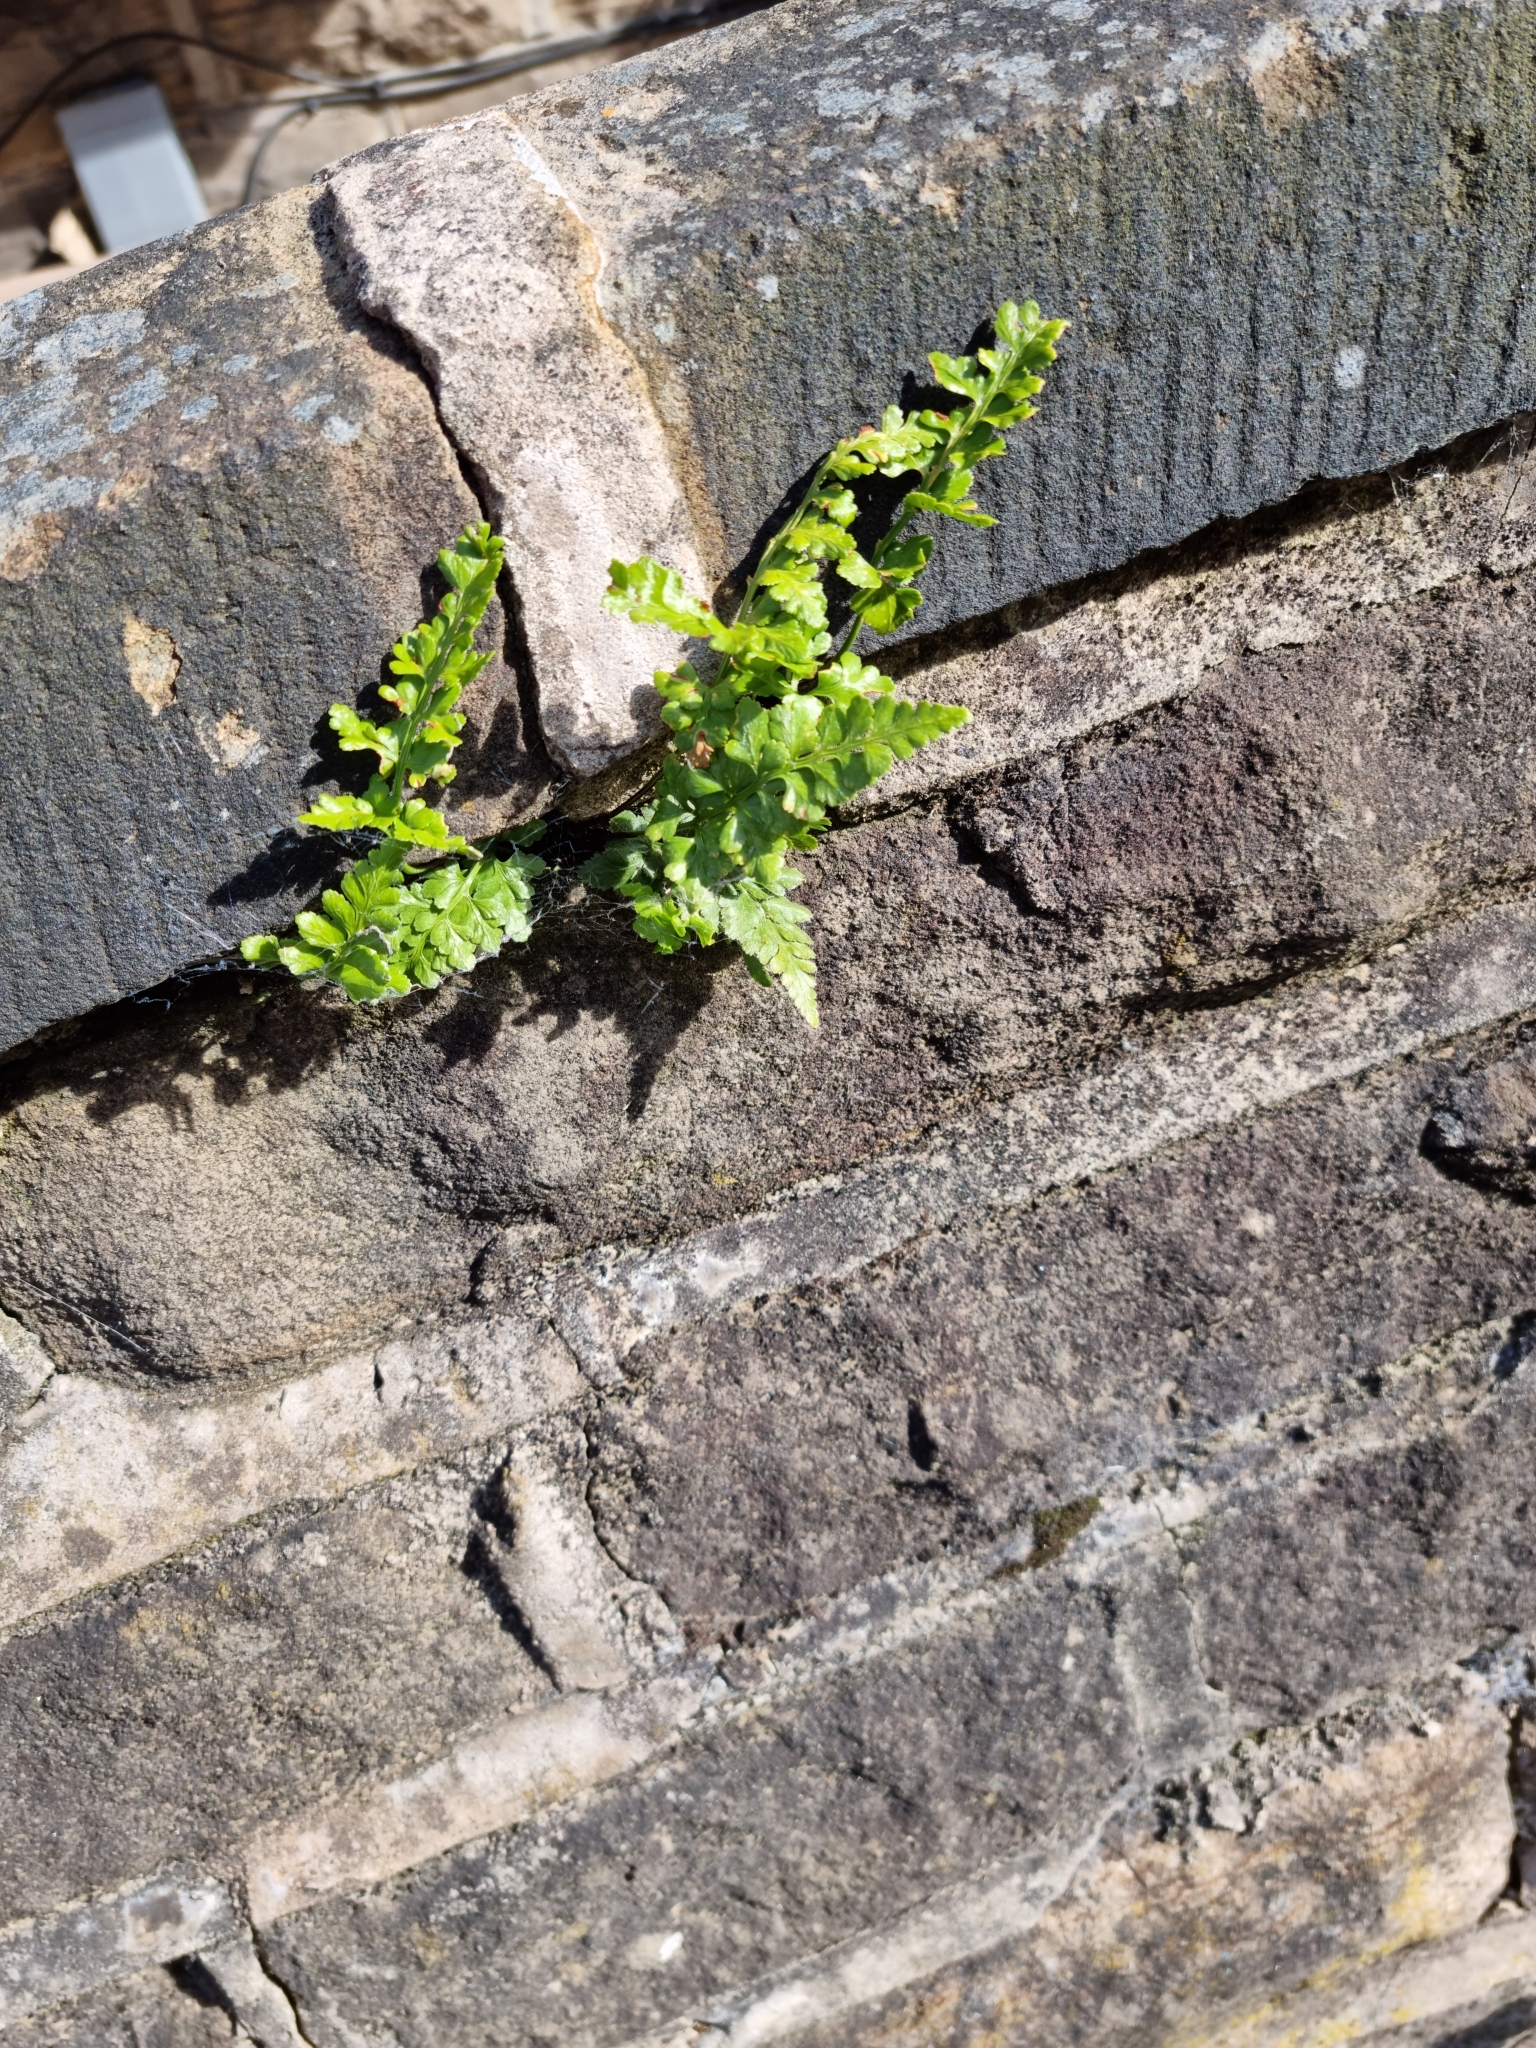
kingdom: Plantae
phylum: Tracheophyta
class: Polypodiopsida
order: Polypodiales
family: Aspleniaceae
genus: Asplenium
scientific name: Asplenium adiantum-nigrum
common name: Black spleenwort
